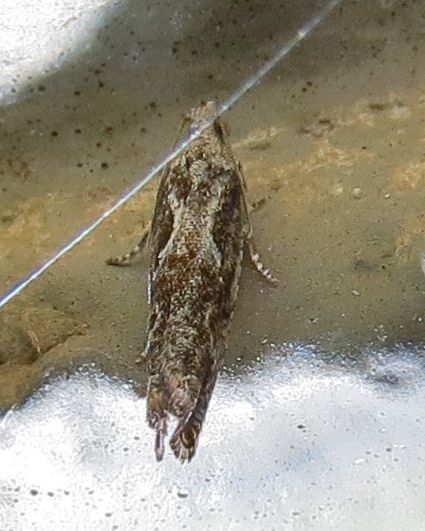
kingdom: Animalia
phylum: Arthropoda
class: Insecta
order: Lepidoptera
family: Tortricidae
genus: Gretchena
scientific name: Gretchena bolliana
